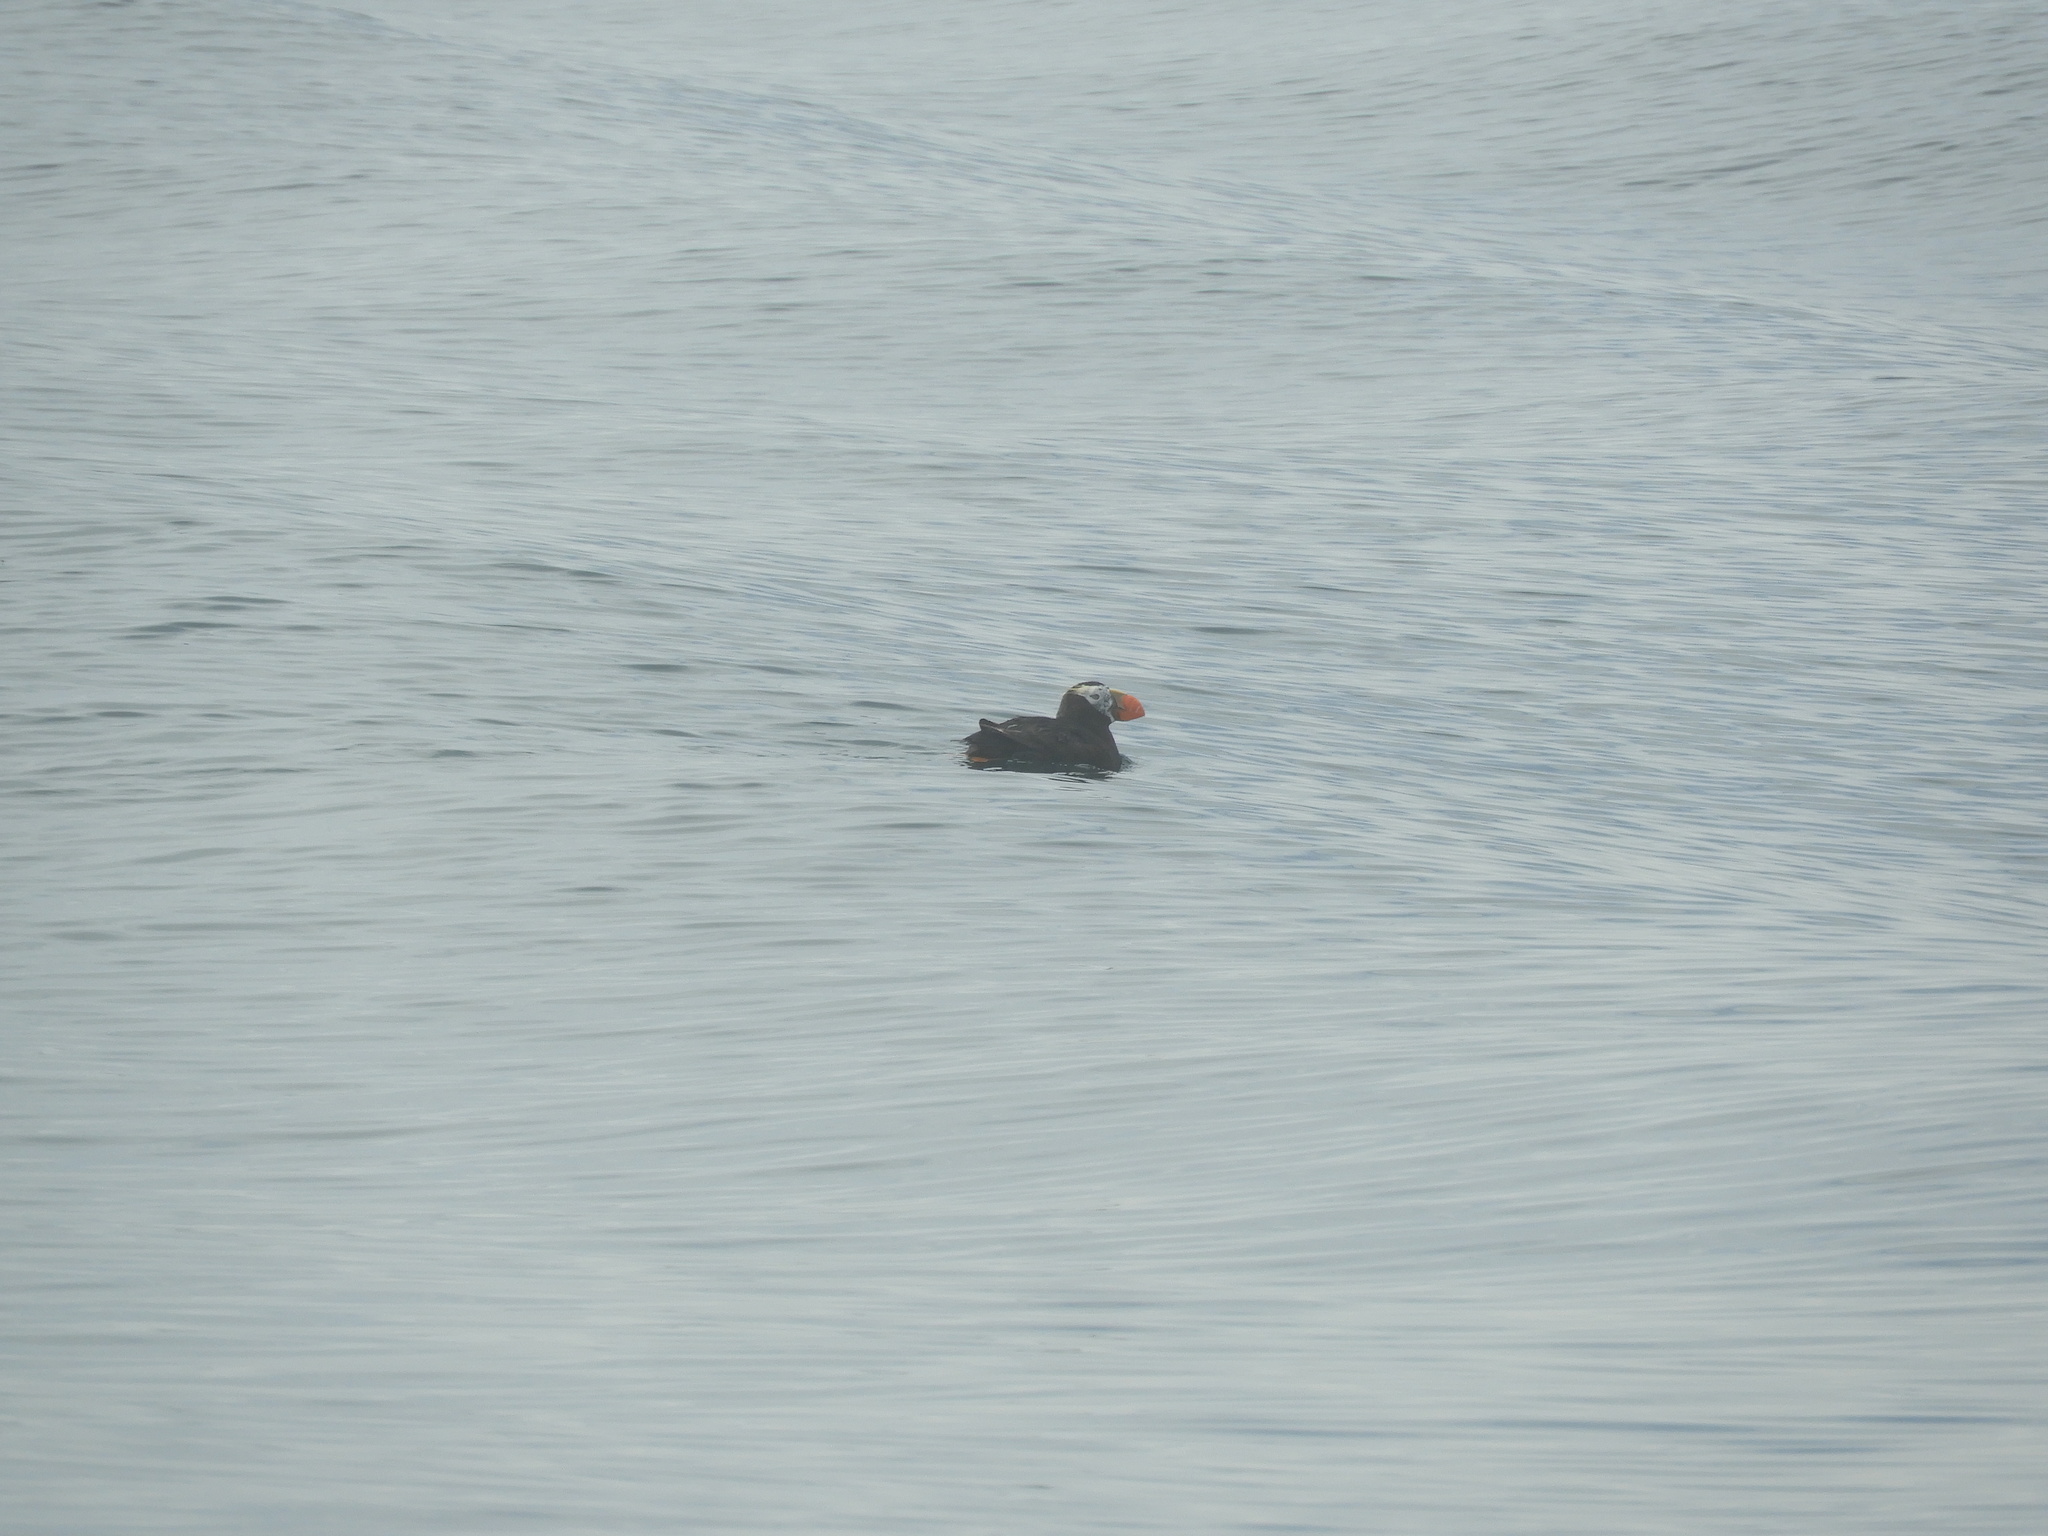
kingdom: Animalia
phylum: Chordata
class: Aves
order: Charadriiformes
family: Alcidae
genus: Fratercula
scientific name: Fratercula cirrhata
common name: Tufted puffin
